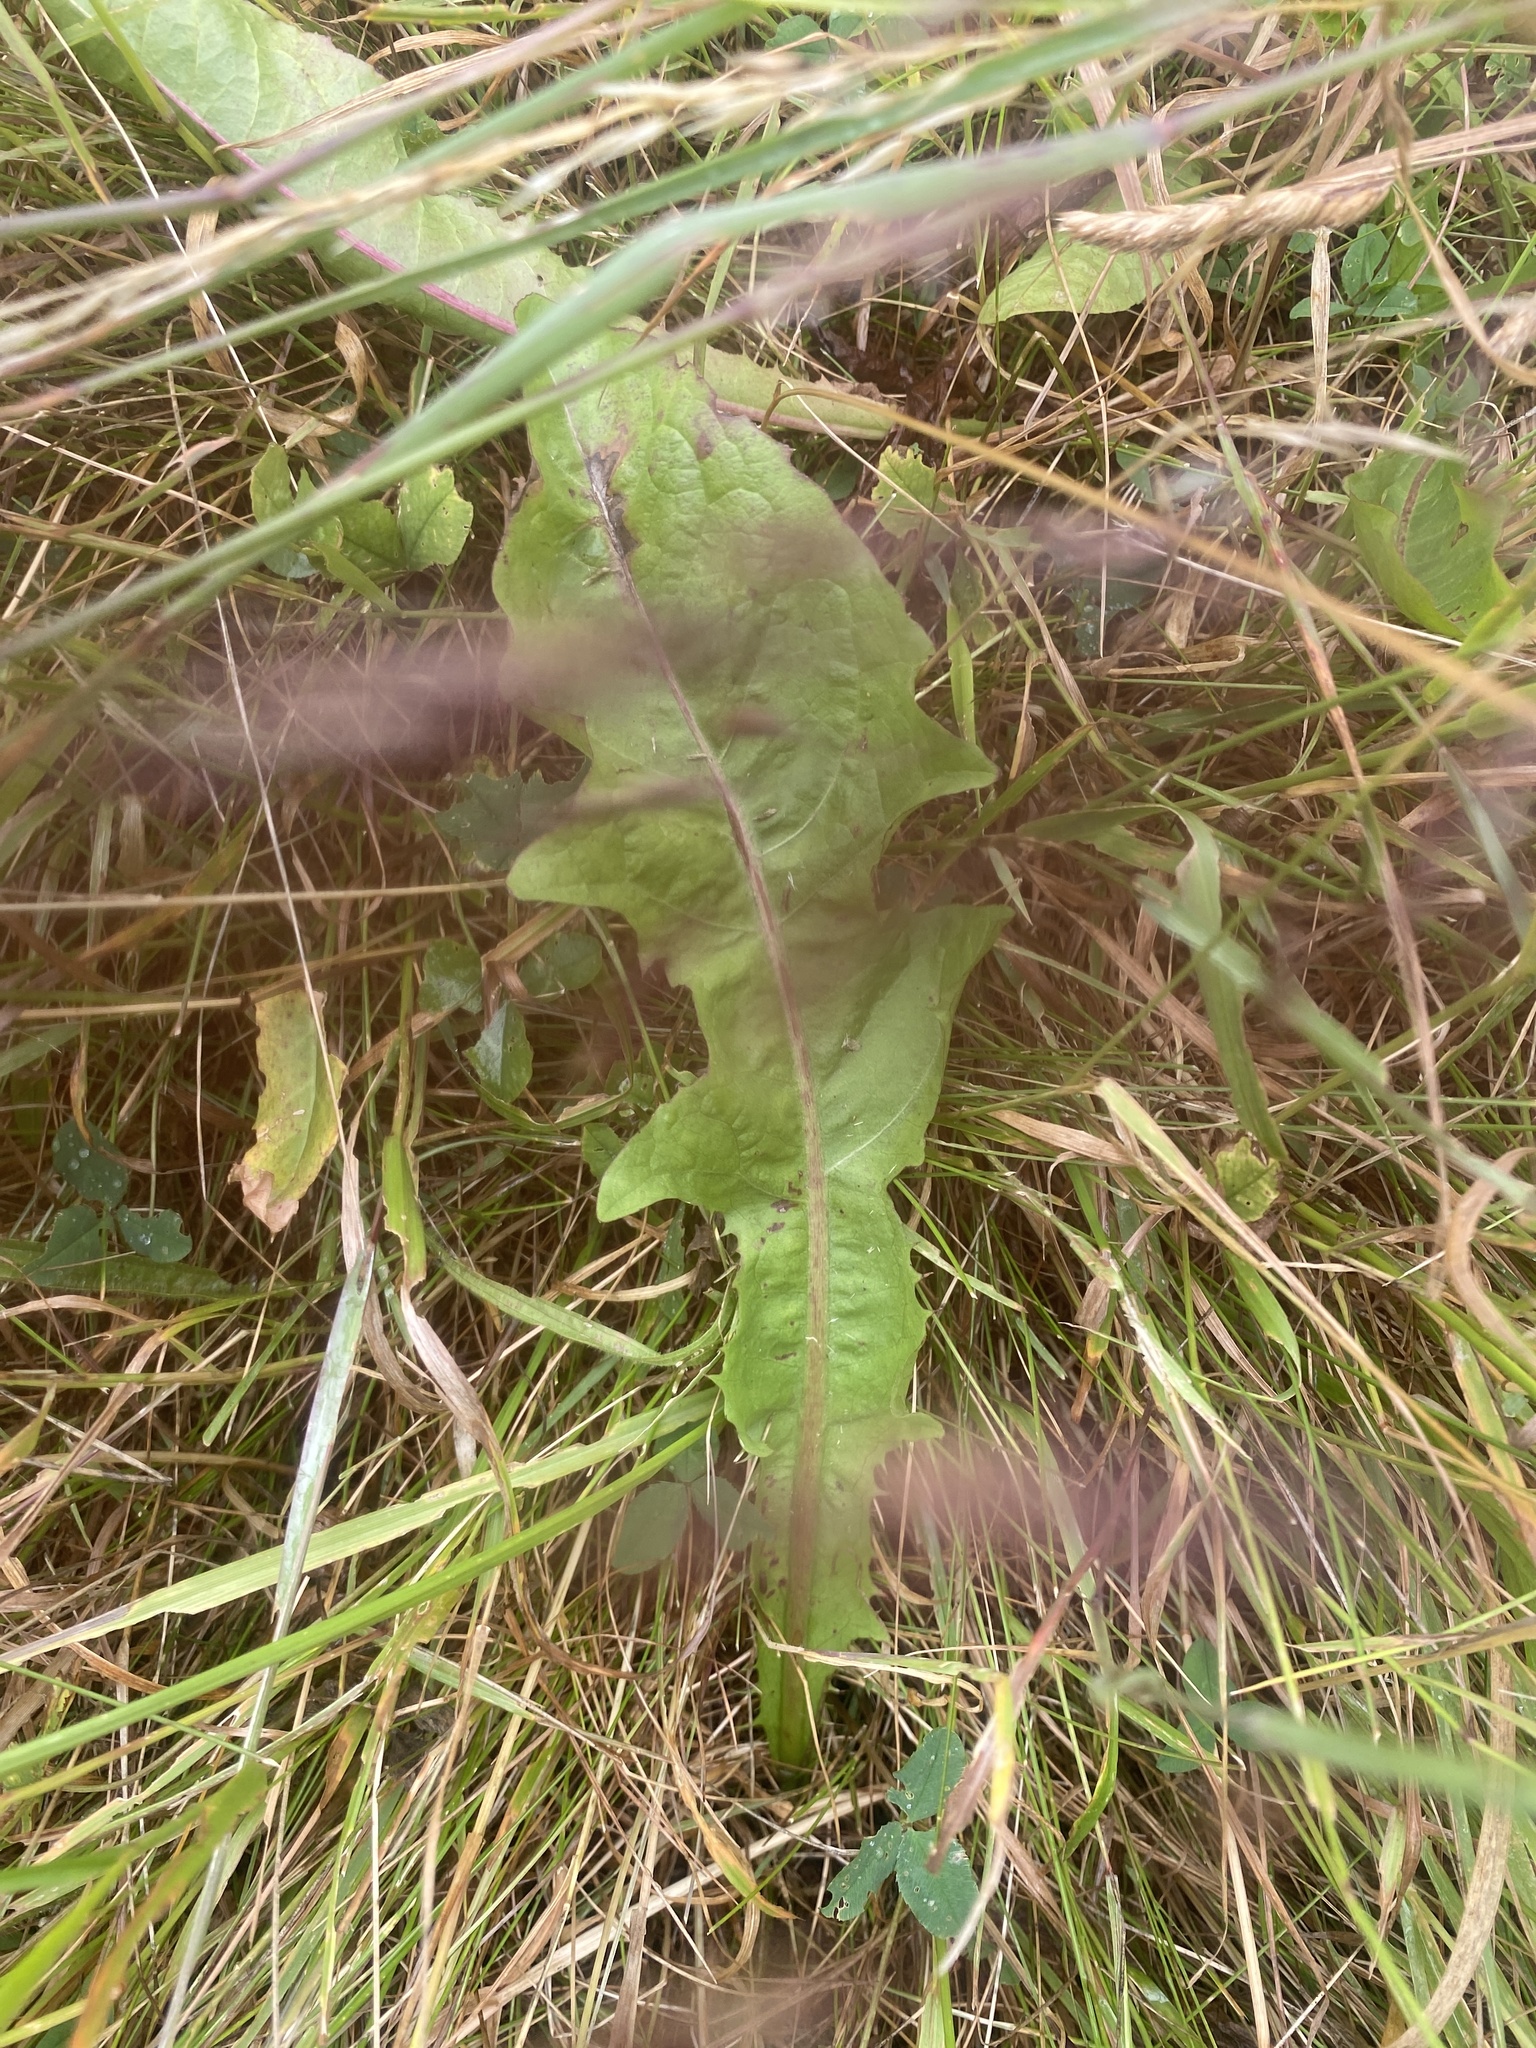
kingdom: Plantae
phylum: Tracheophyta
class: Magnoliopsida
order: Asterales
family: Asteraceae
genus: Taraxacum
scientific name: Taraxacum officinale
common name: Common dandelion
